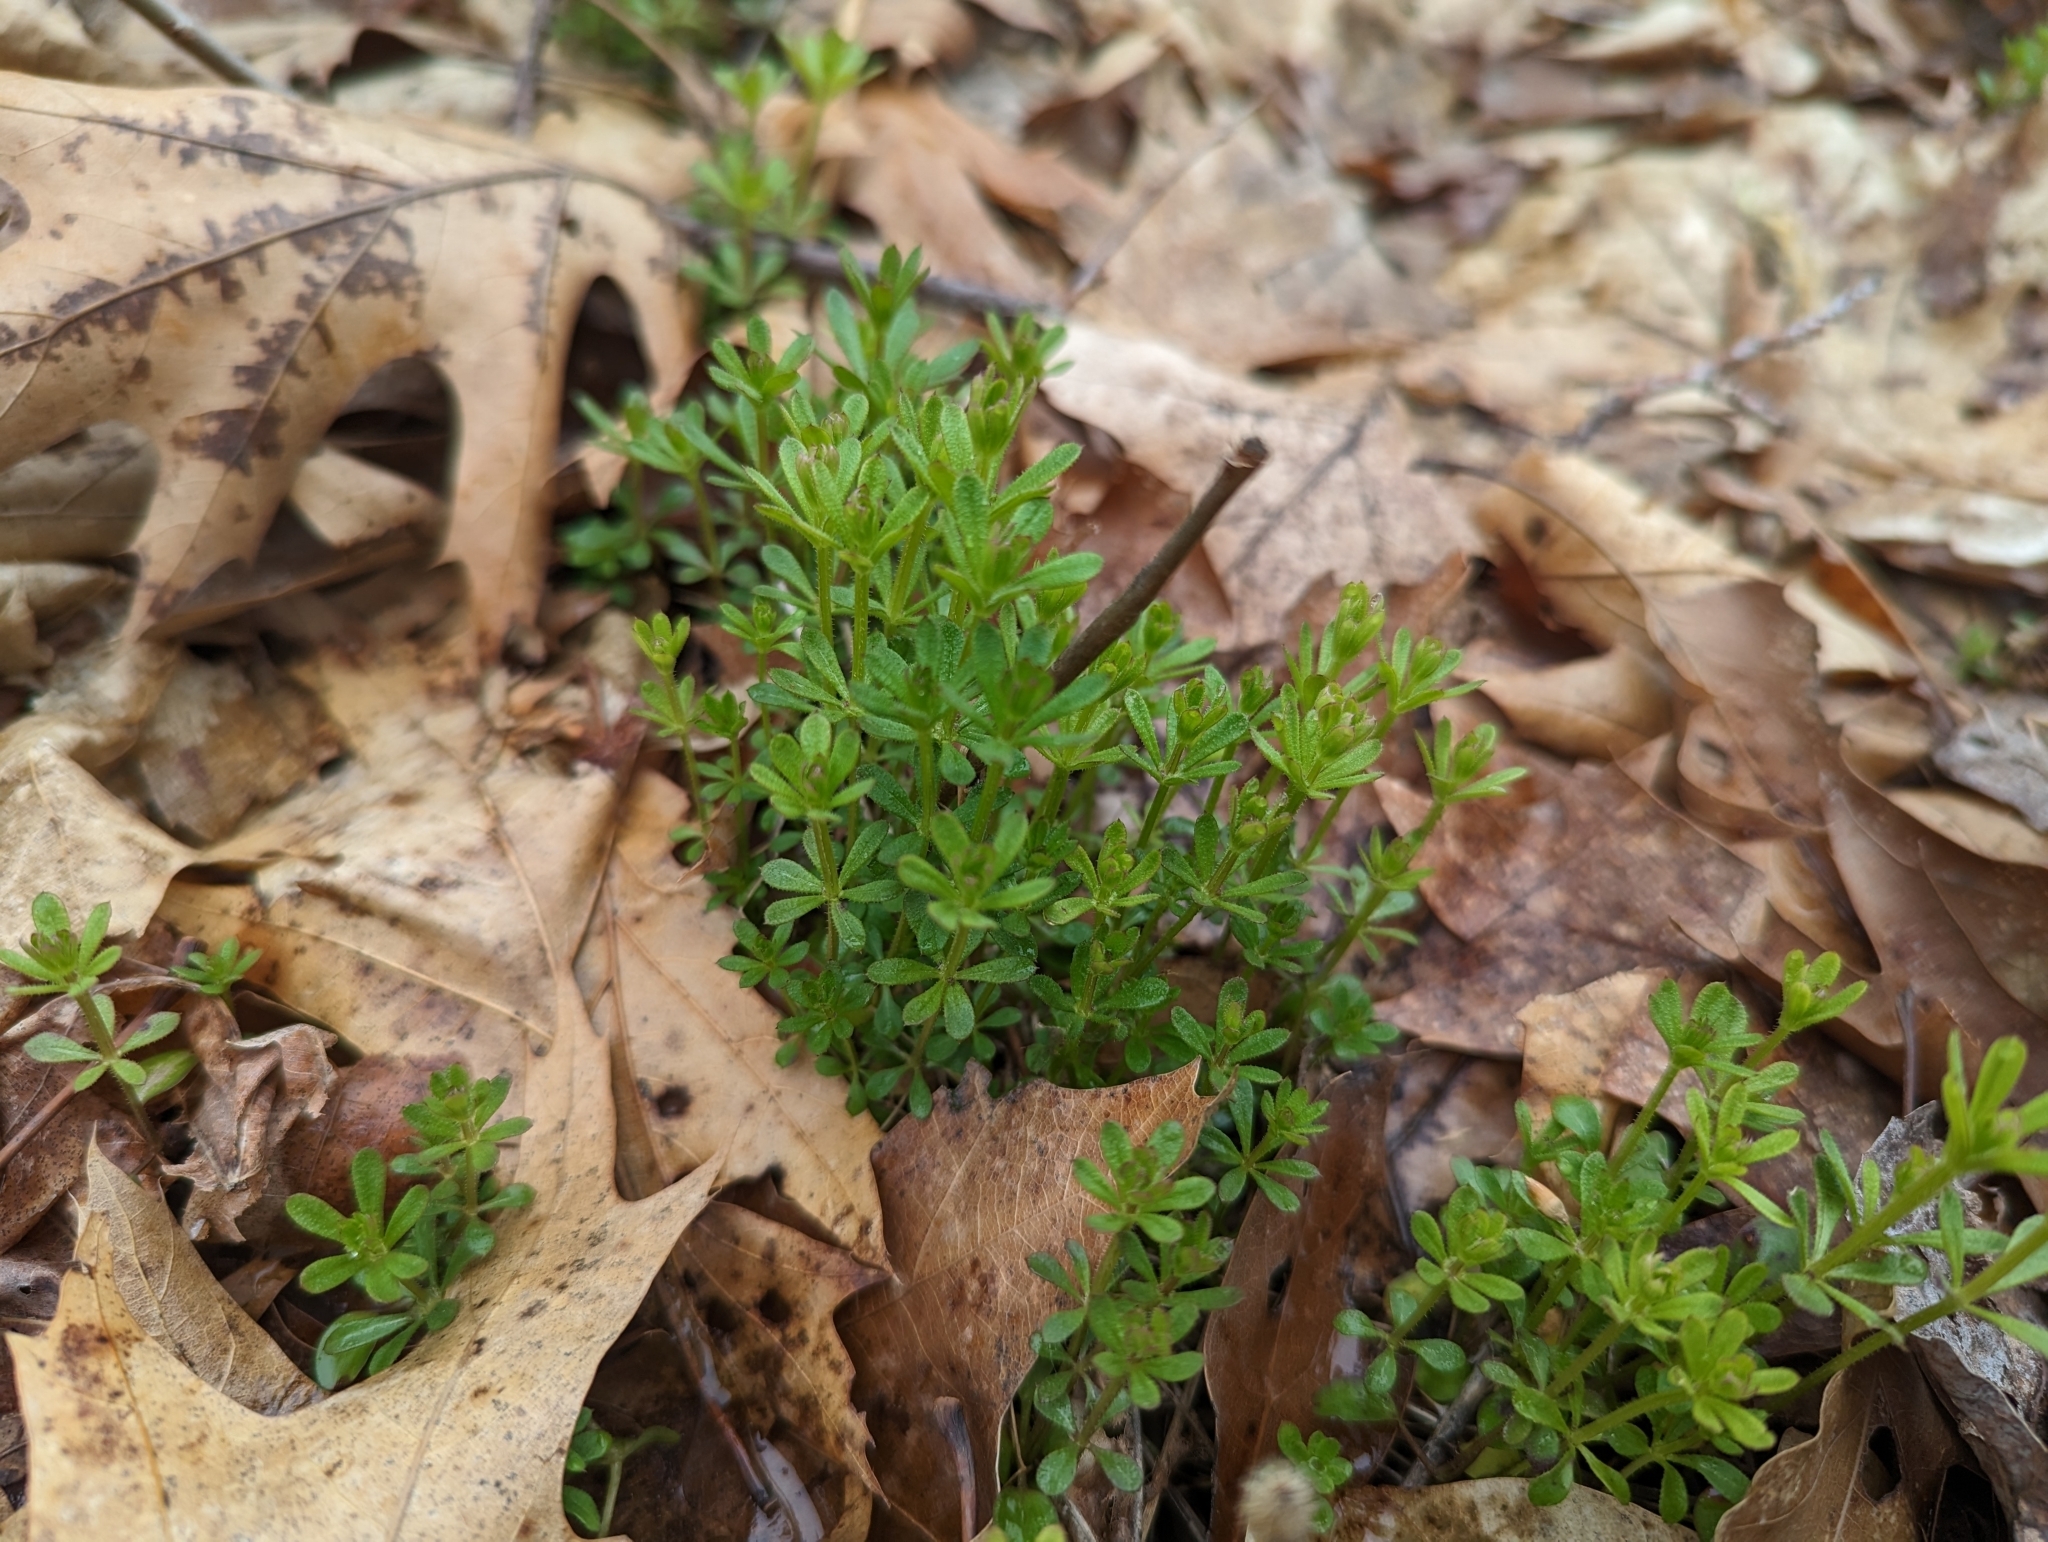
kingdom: Plantae
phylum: Tracheophyta
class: Magnoliopsida
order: Gentianales
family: Rubiaceae
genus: Galium
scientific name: Galium aparine
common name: Cleavers
